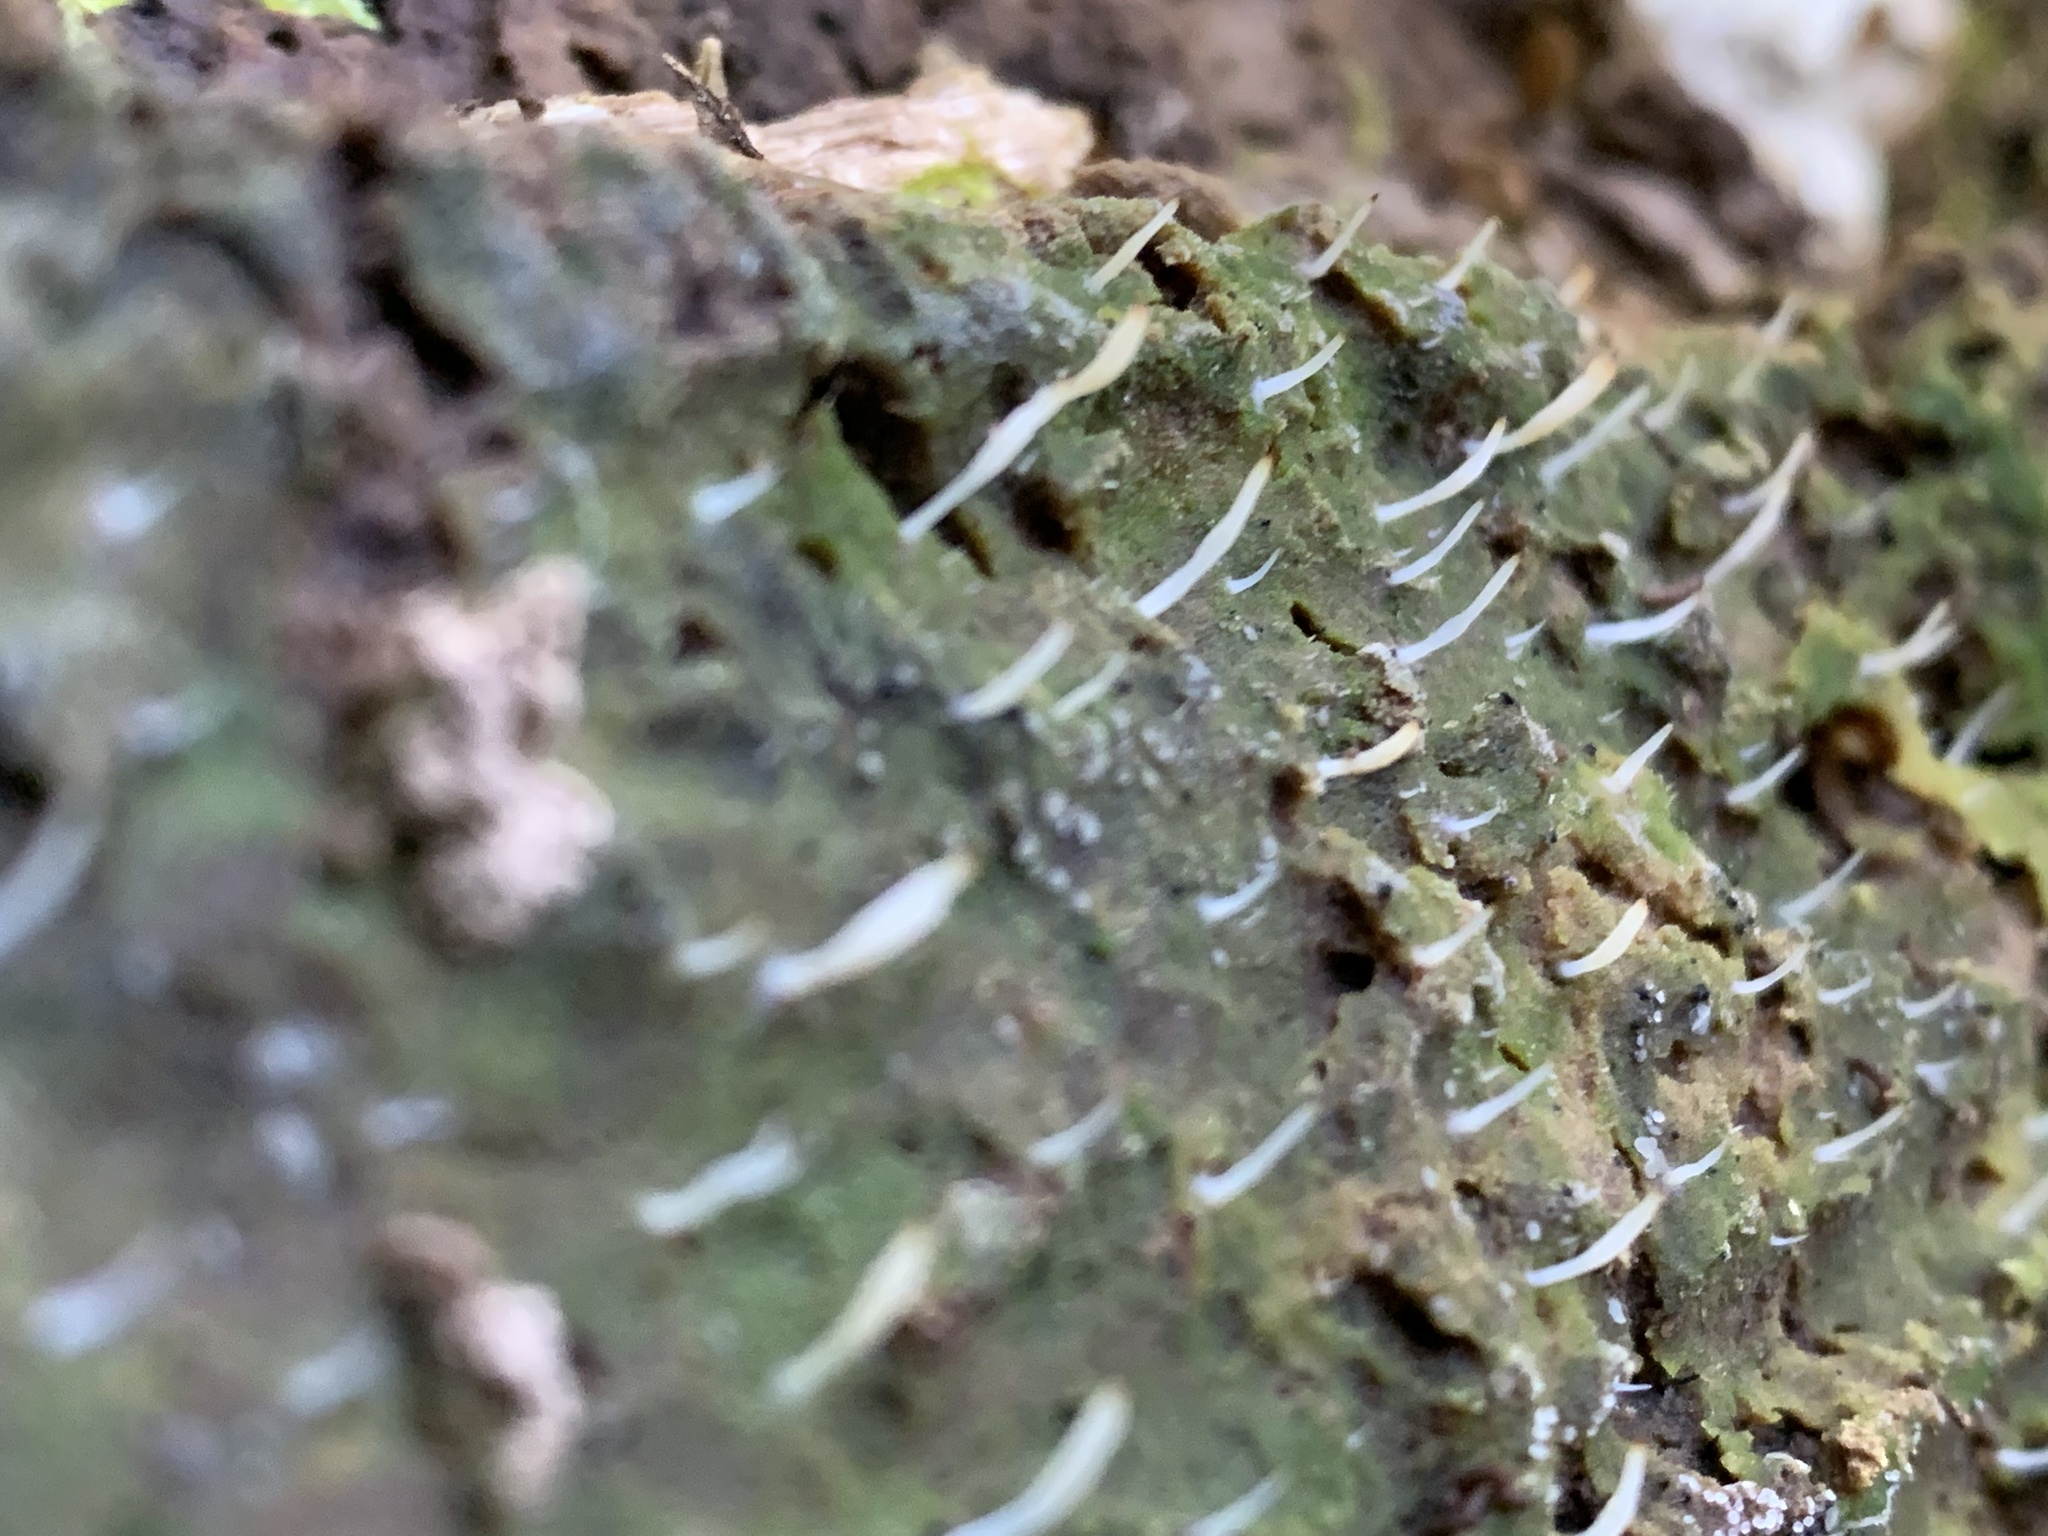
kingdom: Fungi
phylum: Basidiomycota
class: Agaricomycetes
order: Cantharellales
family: Hydnaceae
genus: Multiclavula
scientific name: Multiclavula mucida
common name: White green-algae coral
